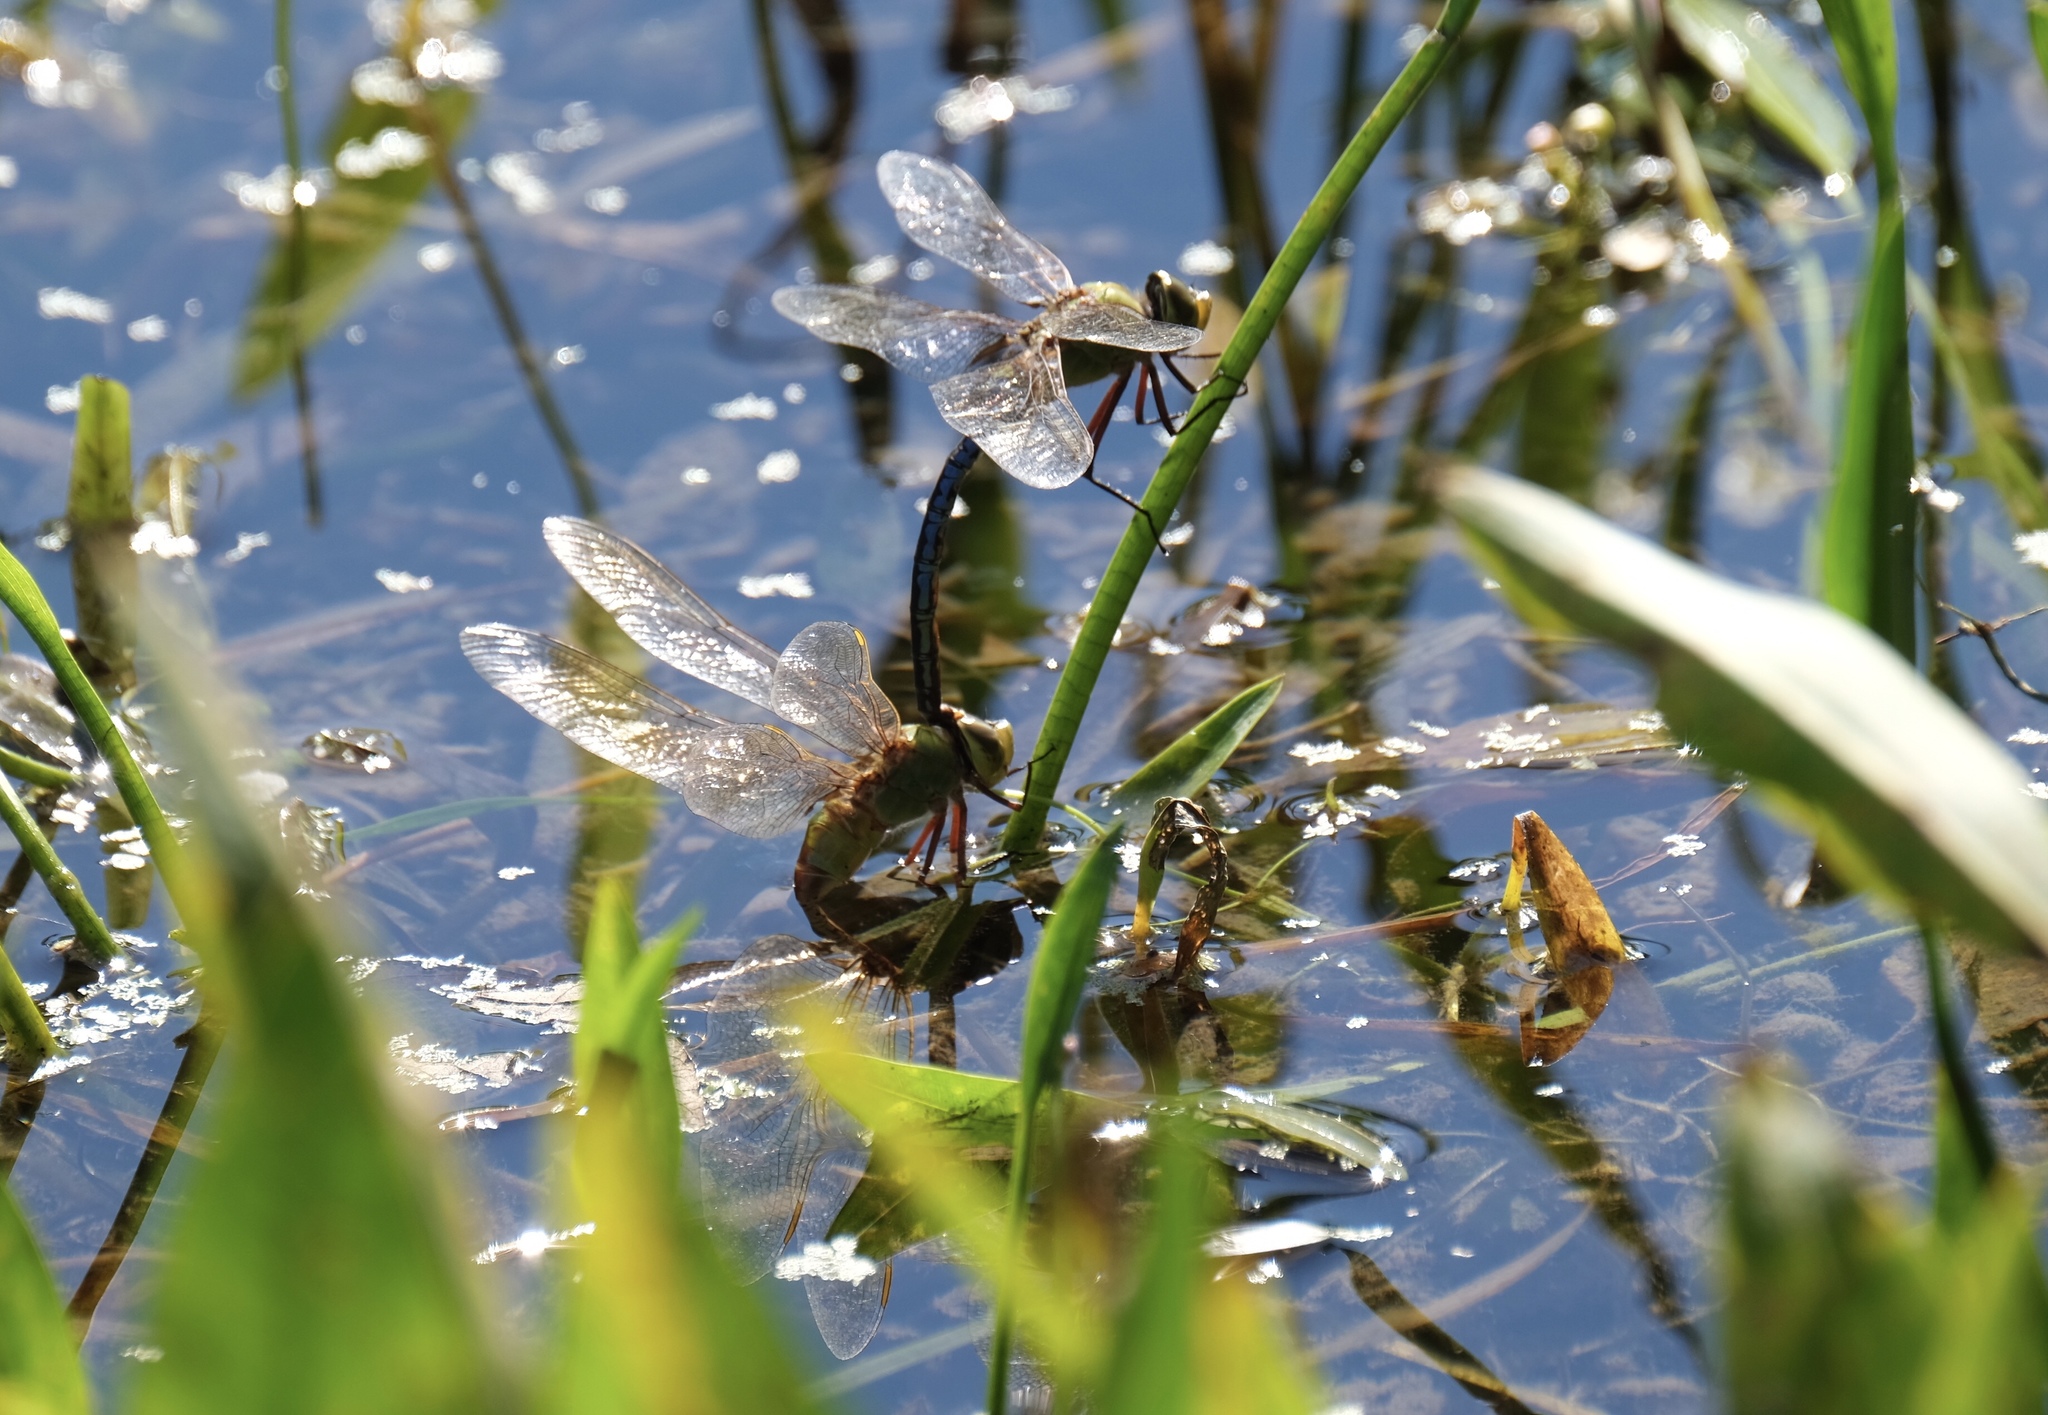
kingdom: Animalia
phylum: Arthropoda
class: Insecta
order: Odonata
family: Aeshnidae
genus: Anax
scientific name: Anax junius
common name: Common green darner
